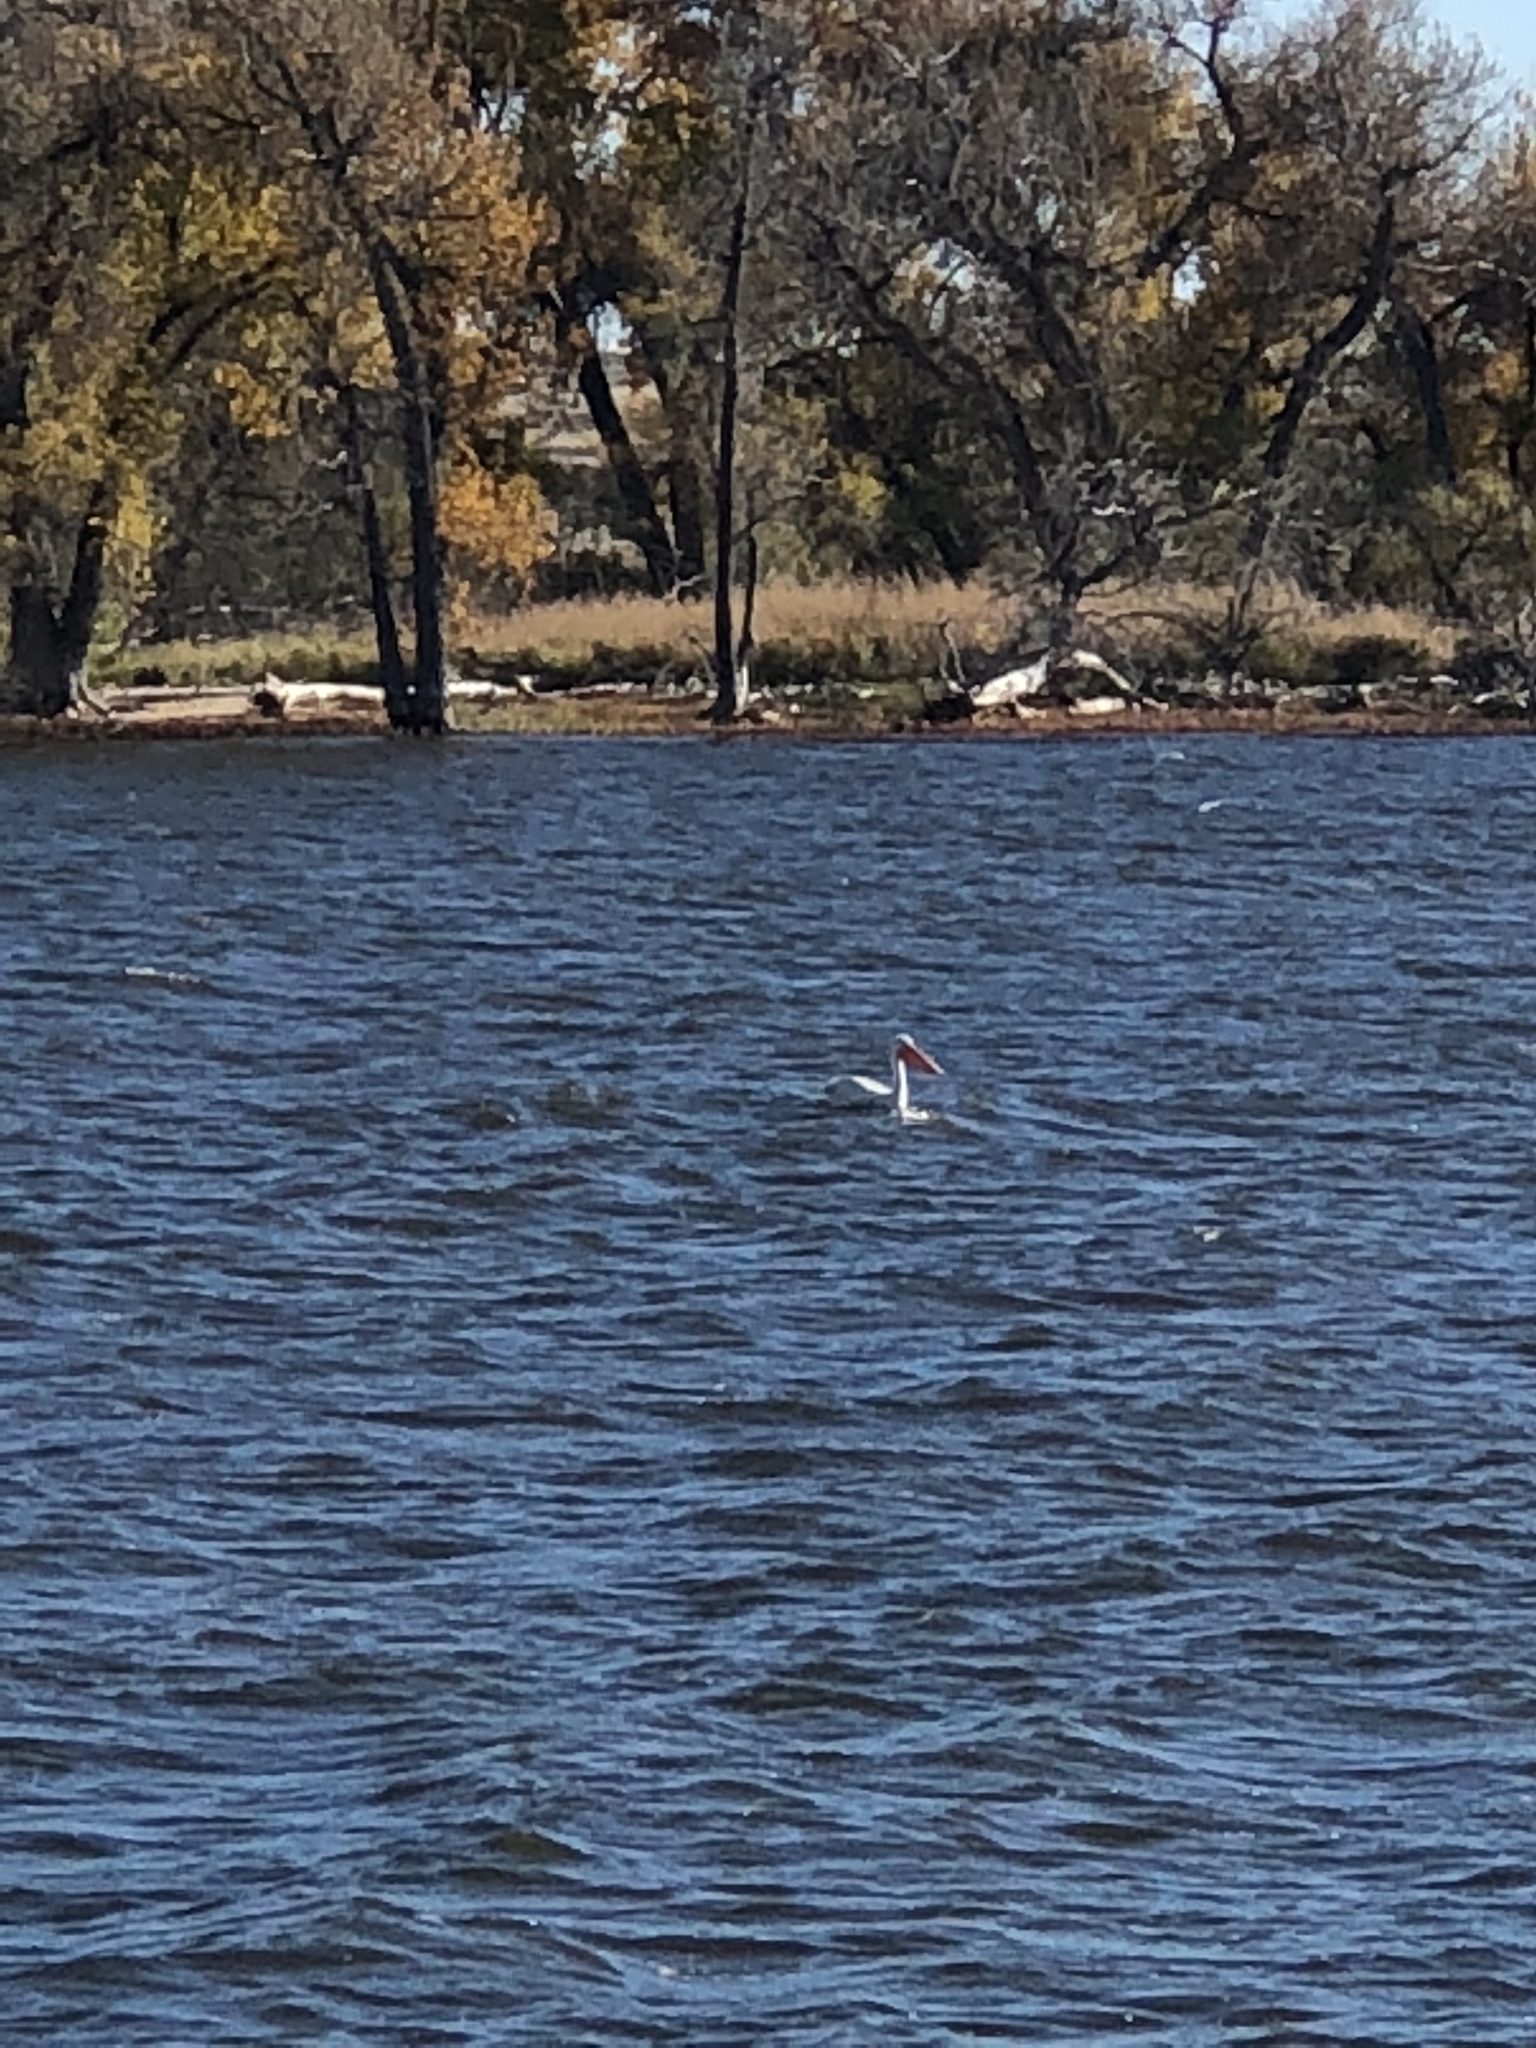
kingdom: Animalia
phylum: Chordata
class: Aves
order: Pelecaniformes
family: Pelecanidae
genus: Pelecanus
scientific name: Pelecanus erythrorhynchos
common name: American white pelican
